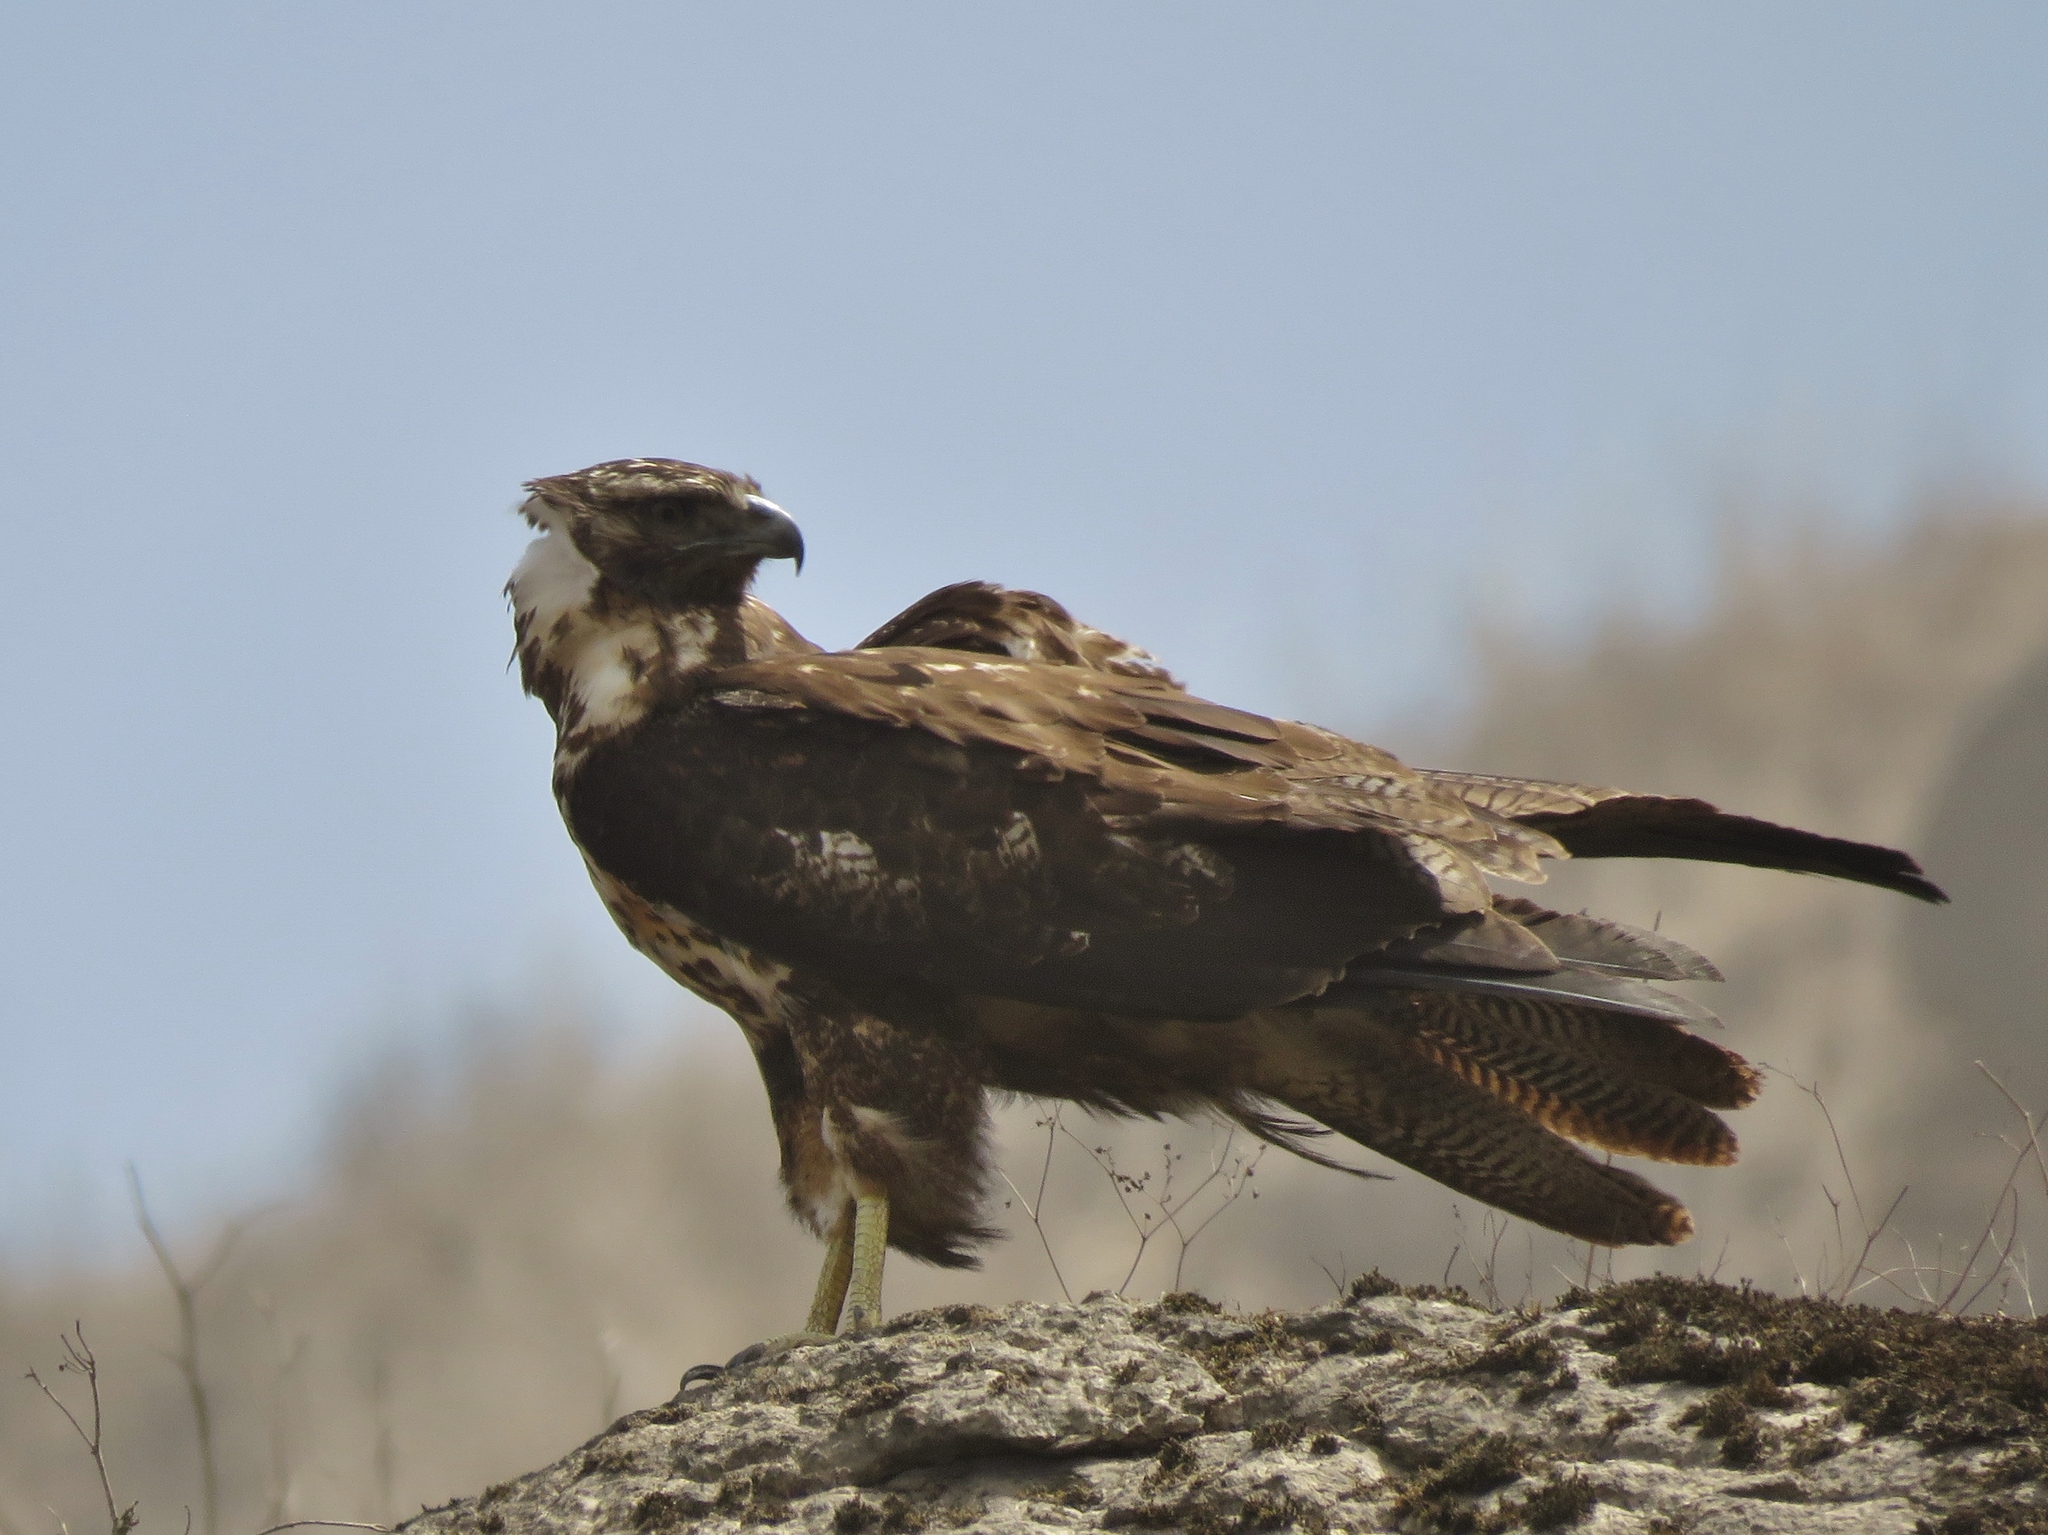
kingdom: Animalia
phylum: Chordata
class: Aves
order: Accipitriformes
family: Accipitridae
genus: Geranoaetus
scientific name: Geranoaetus melanoleucus
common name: Black-chested buzzard-eagle
